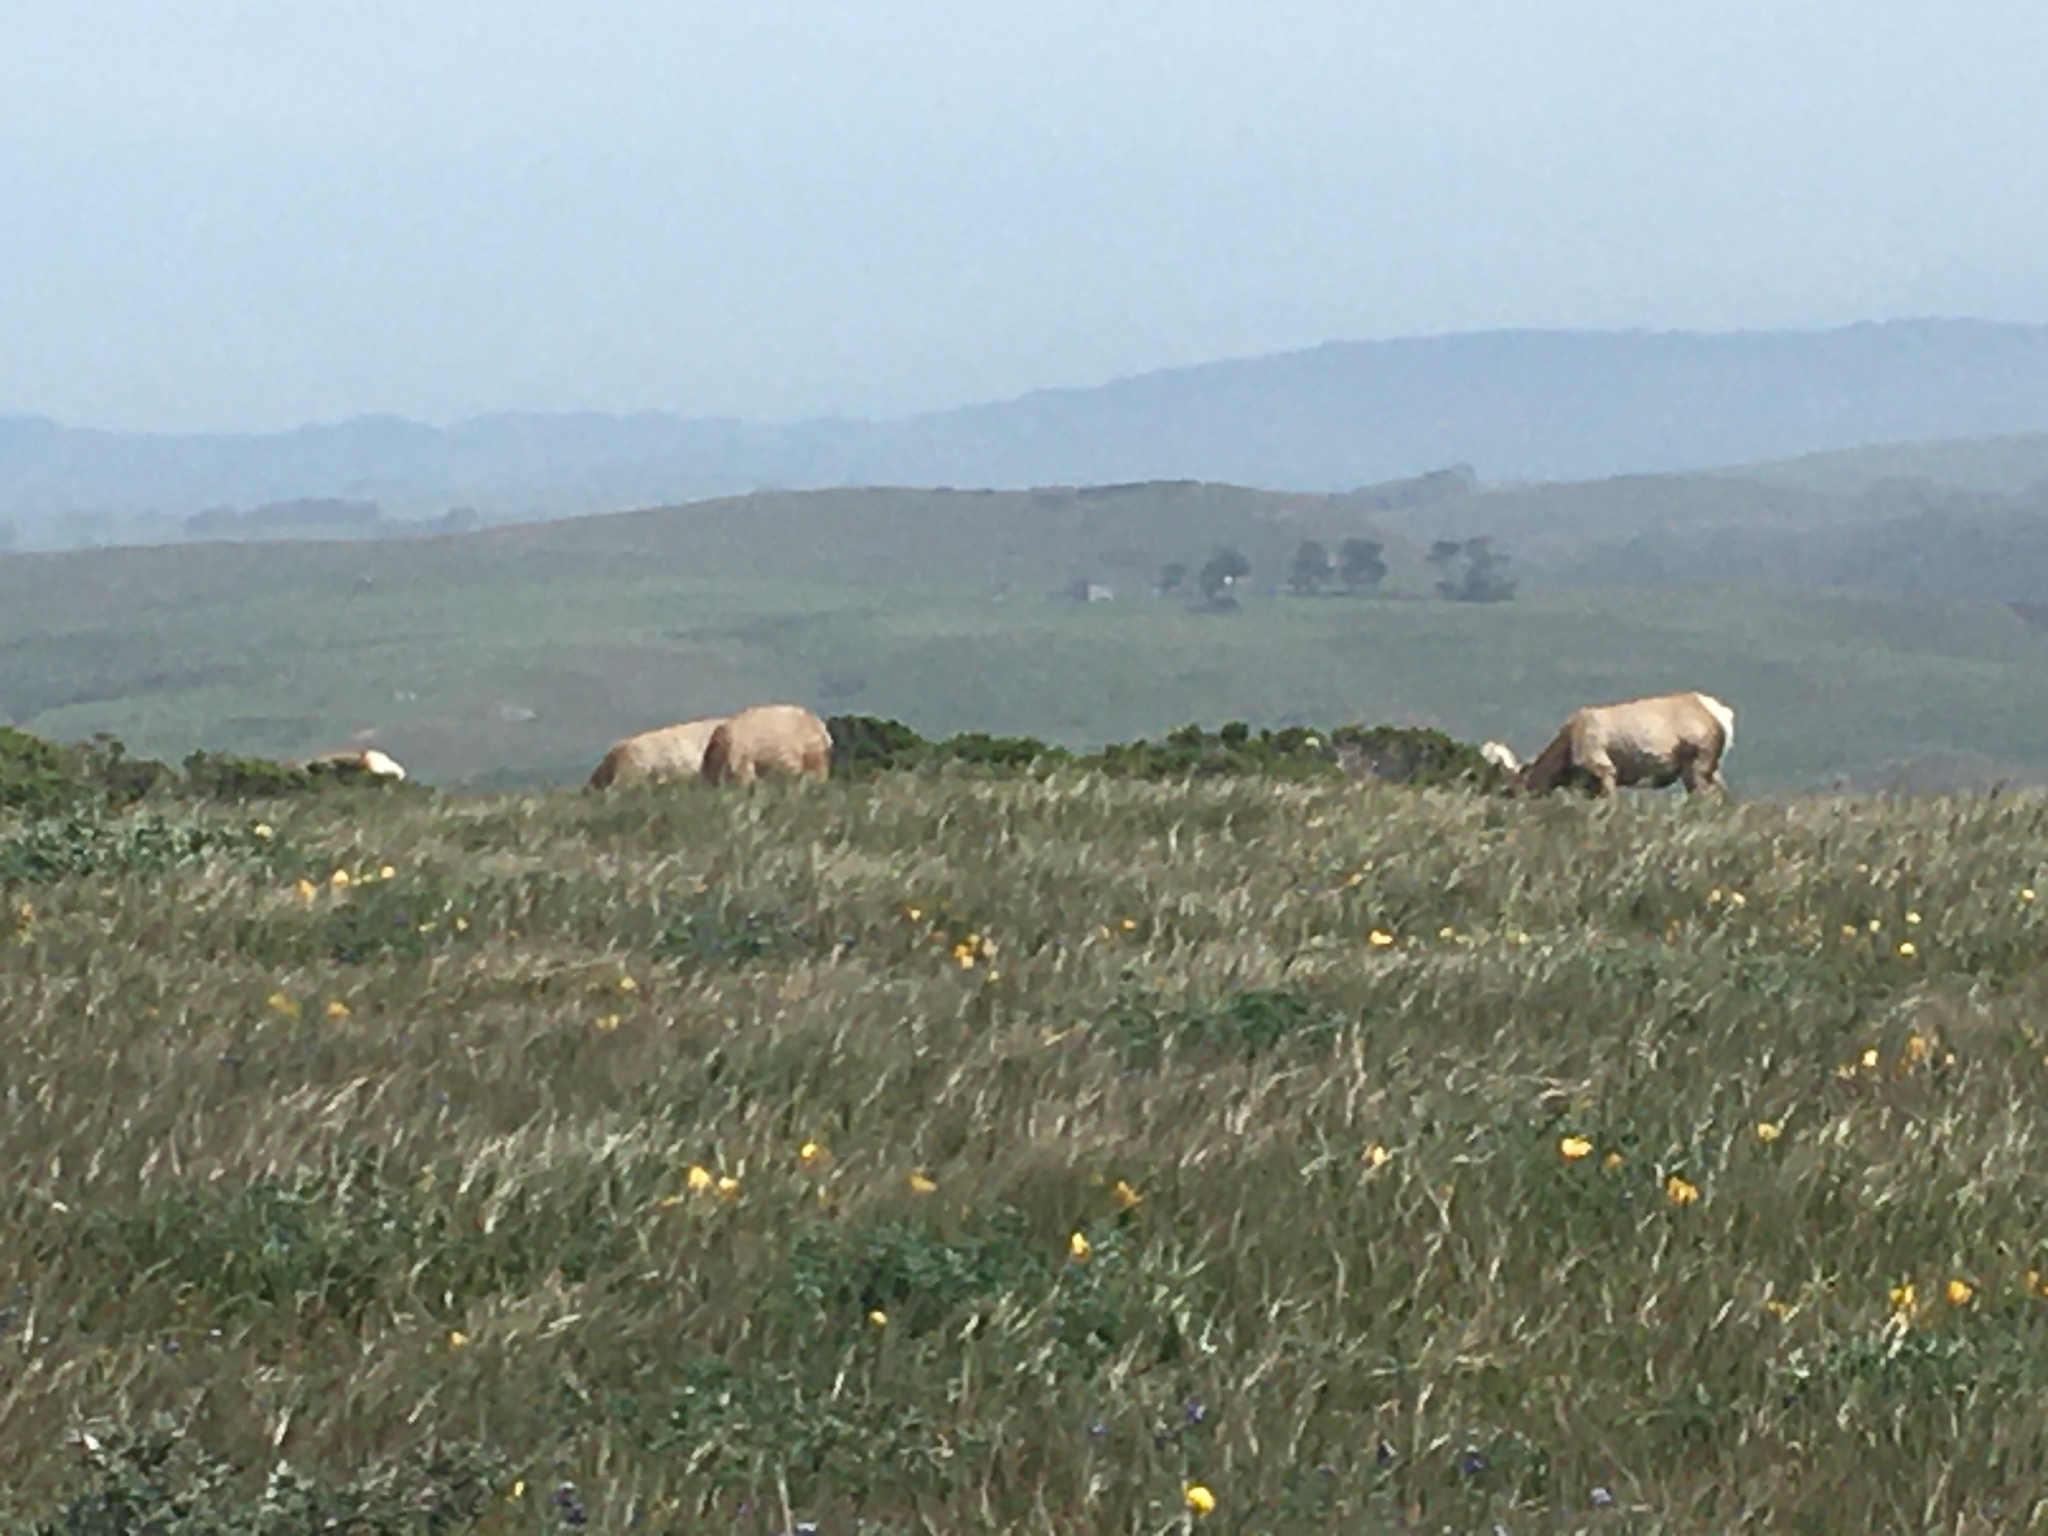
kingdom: Animalia
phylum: Chordata
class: Mammalia
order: Artiodactyla
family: Cervidae
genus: Cervus
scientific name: Cervus elaphus
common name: Red deer
